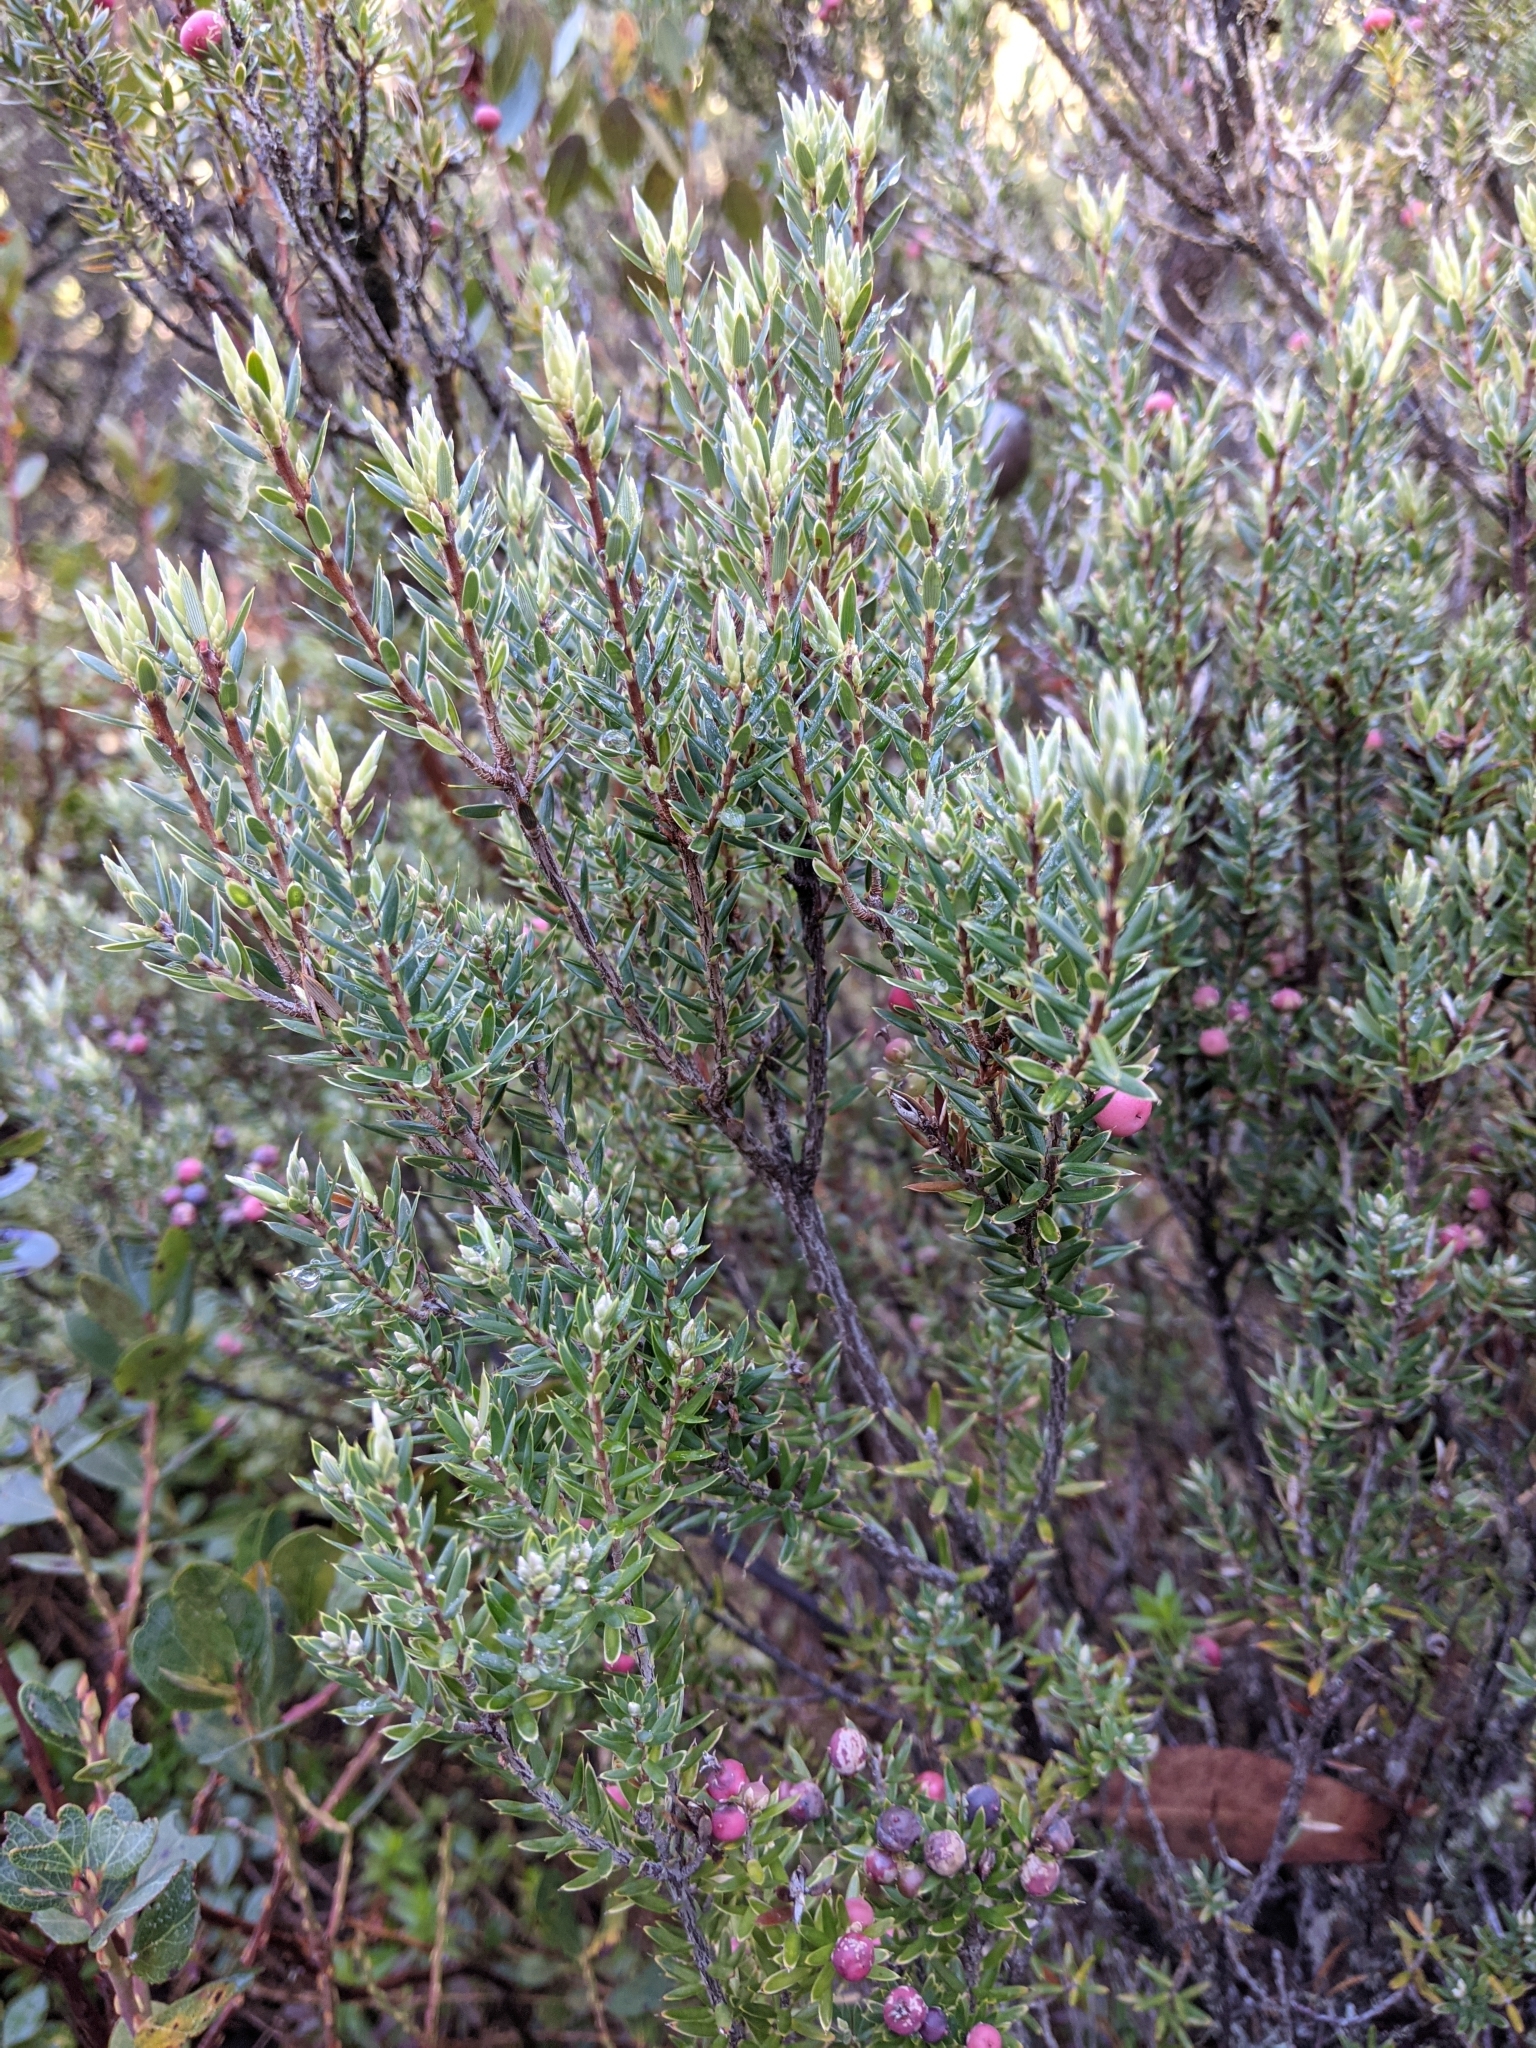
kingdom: Plantae
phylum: Tracheophyta
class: Magnoliopsida
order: Ericales
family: Ericaceae
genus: Leptecophylla
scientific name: Leptecophylla tameiameiae
